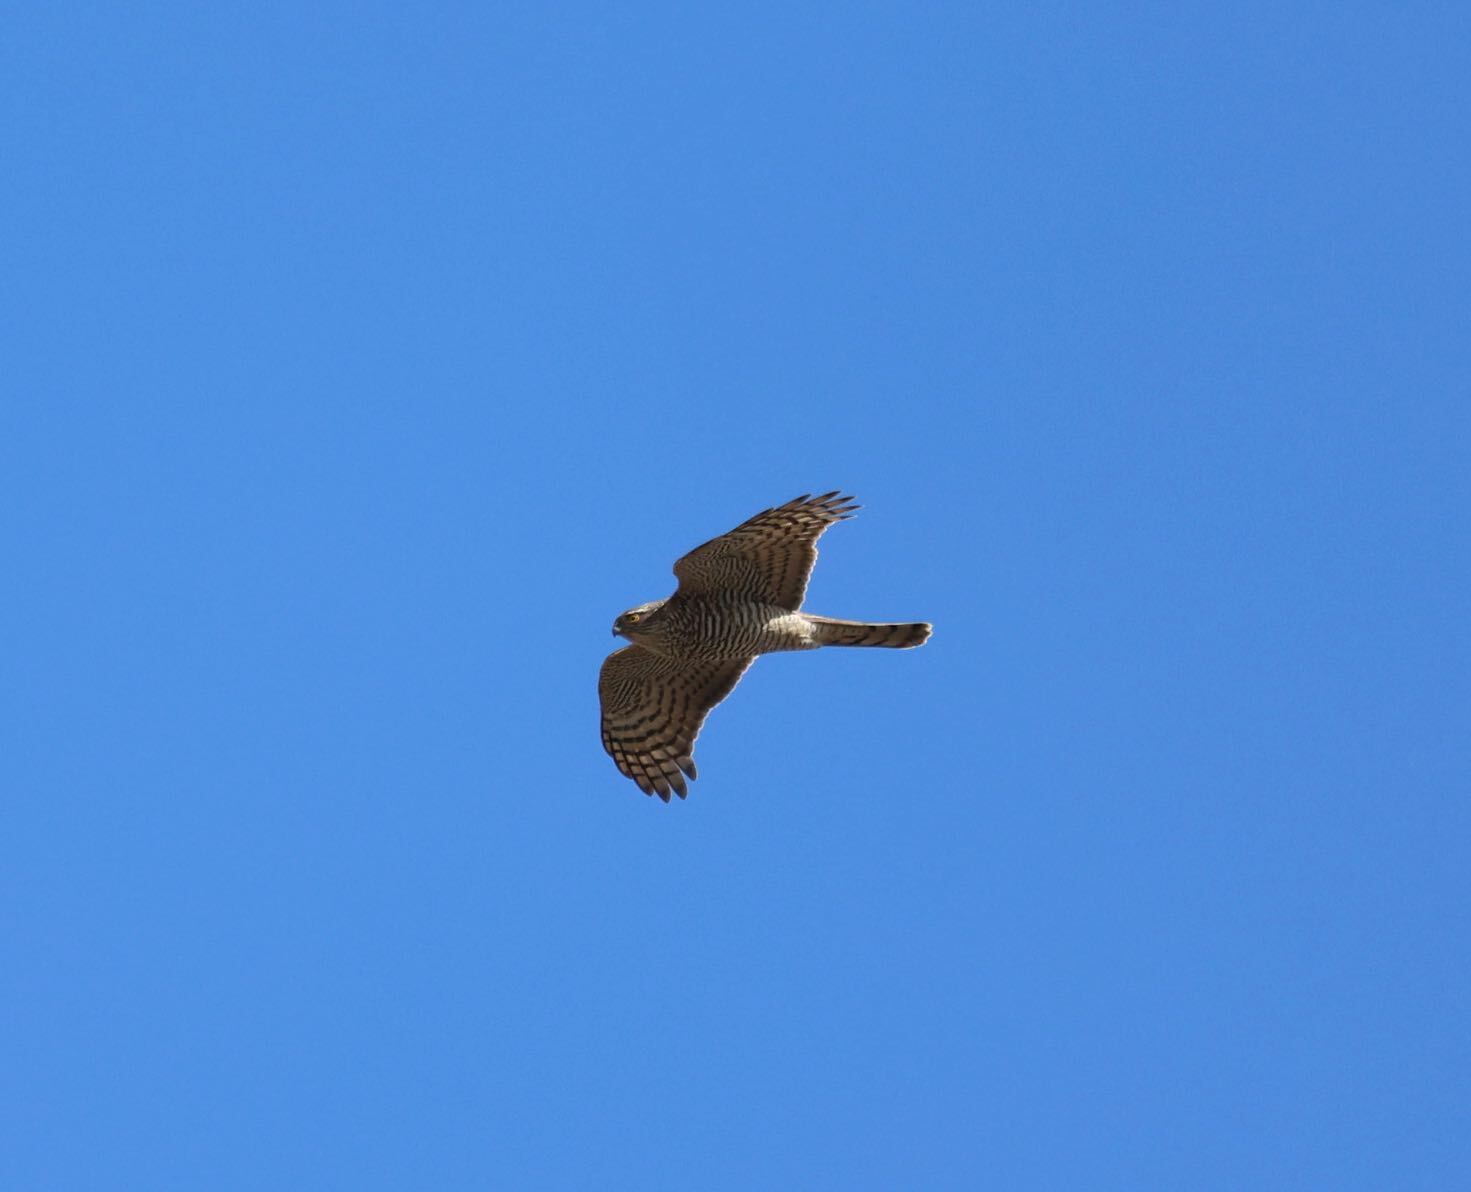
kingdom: Animalia
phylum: Chordata
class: Aves
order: Accipitriformes
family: Accipitridae
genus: Accipiter
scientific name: Accipiter nisus
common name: Eurasian sparrowhawk
